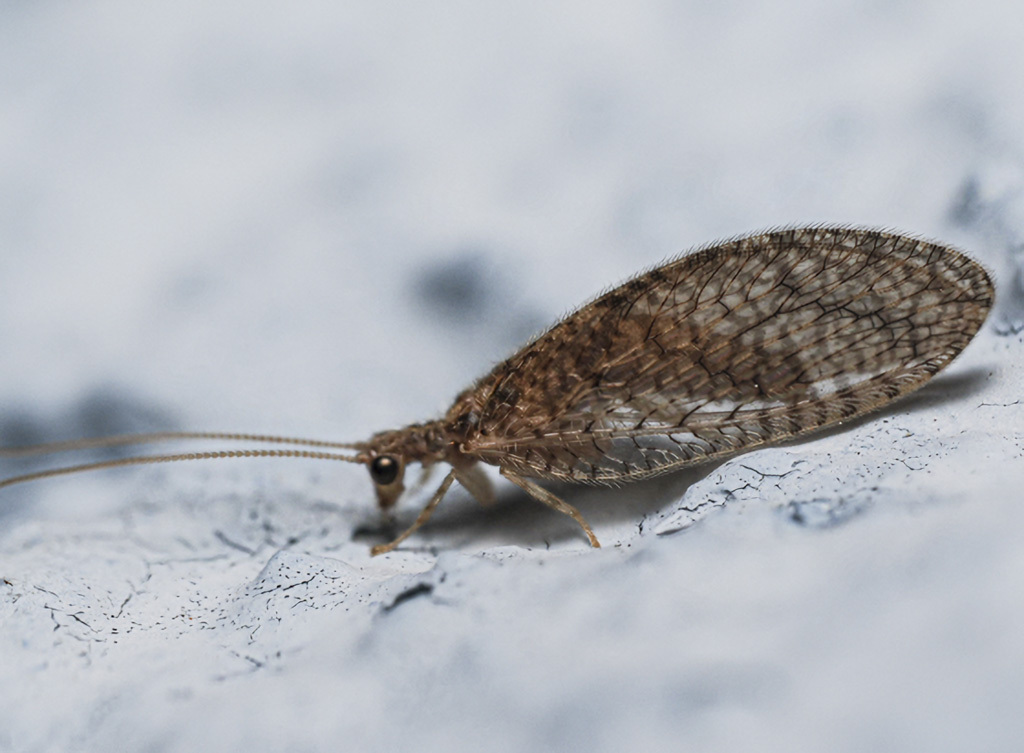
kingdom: Animalia
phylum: Arthropoda
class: Insecta
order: Neuroptera
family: Hemerobiidae
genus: Micromus
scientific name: Micromus posticus
